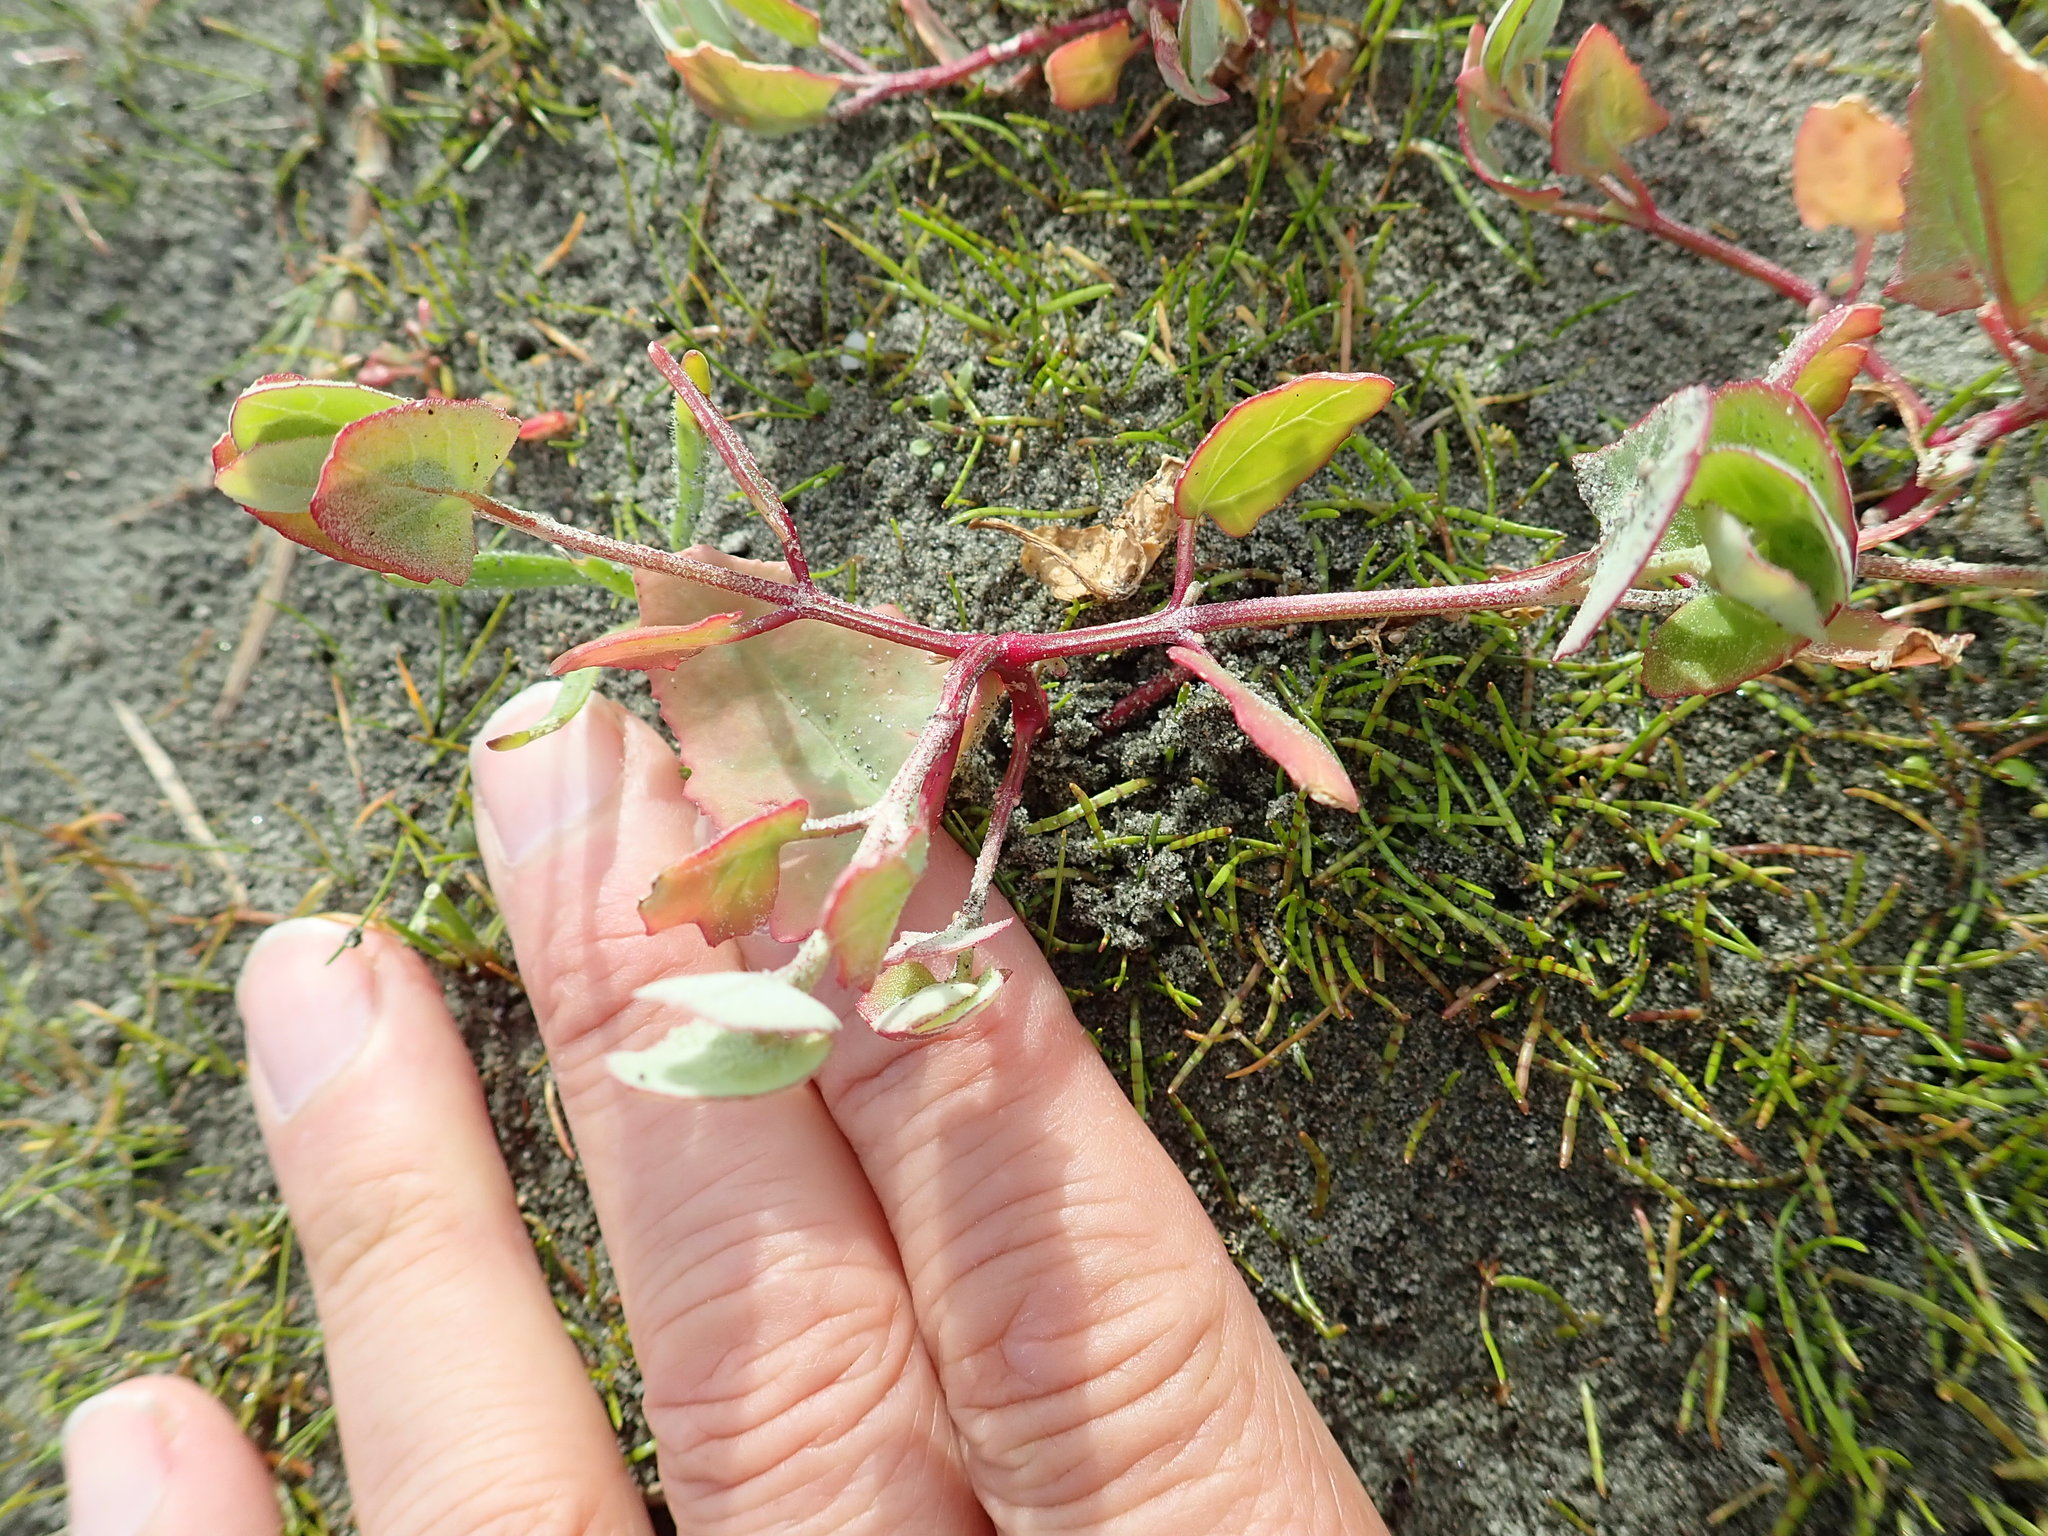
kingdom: Plantae
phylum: Tracheophyta
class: Magnoliopsida
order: Caryophyllales
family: Amaranthaceae
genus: Atriplex
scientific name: Atriplex prostrata
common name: Spear-leaved orache
